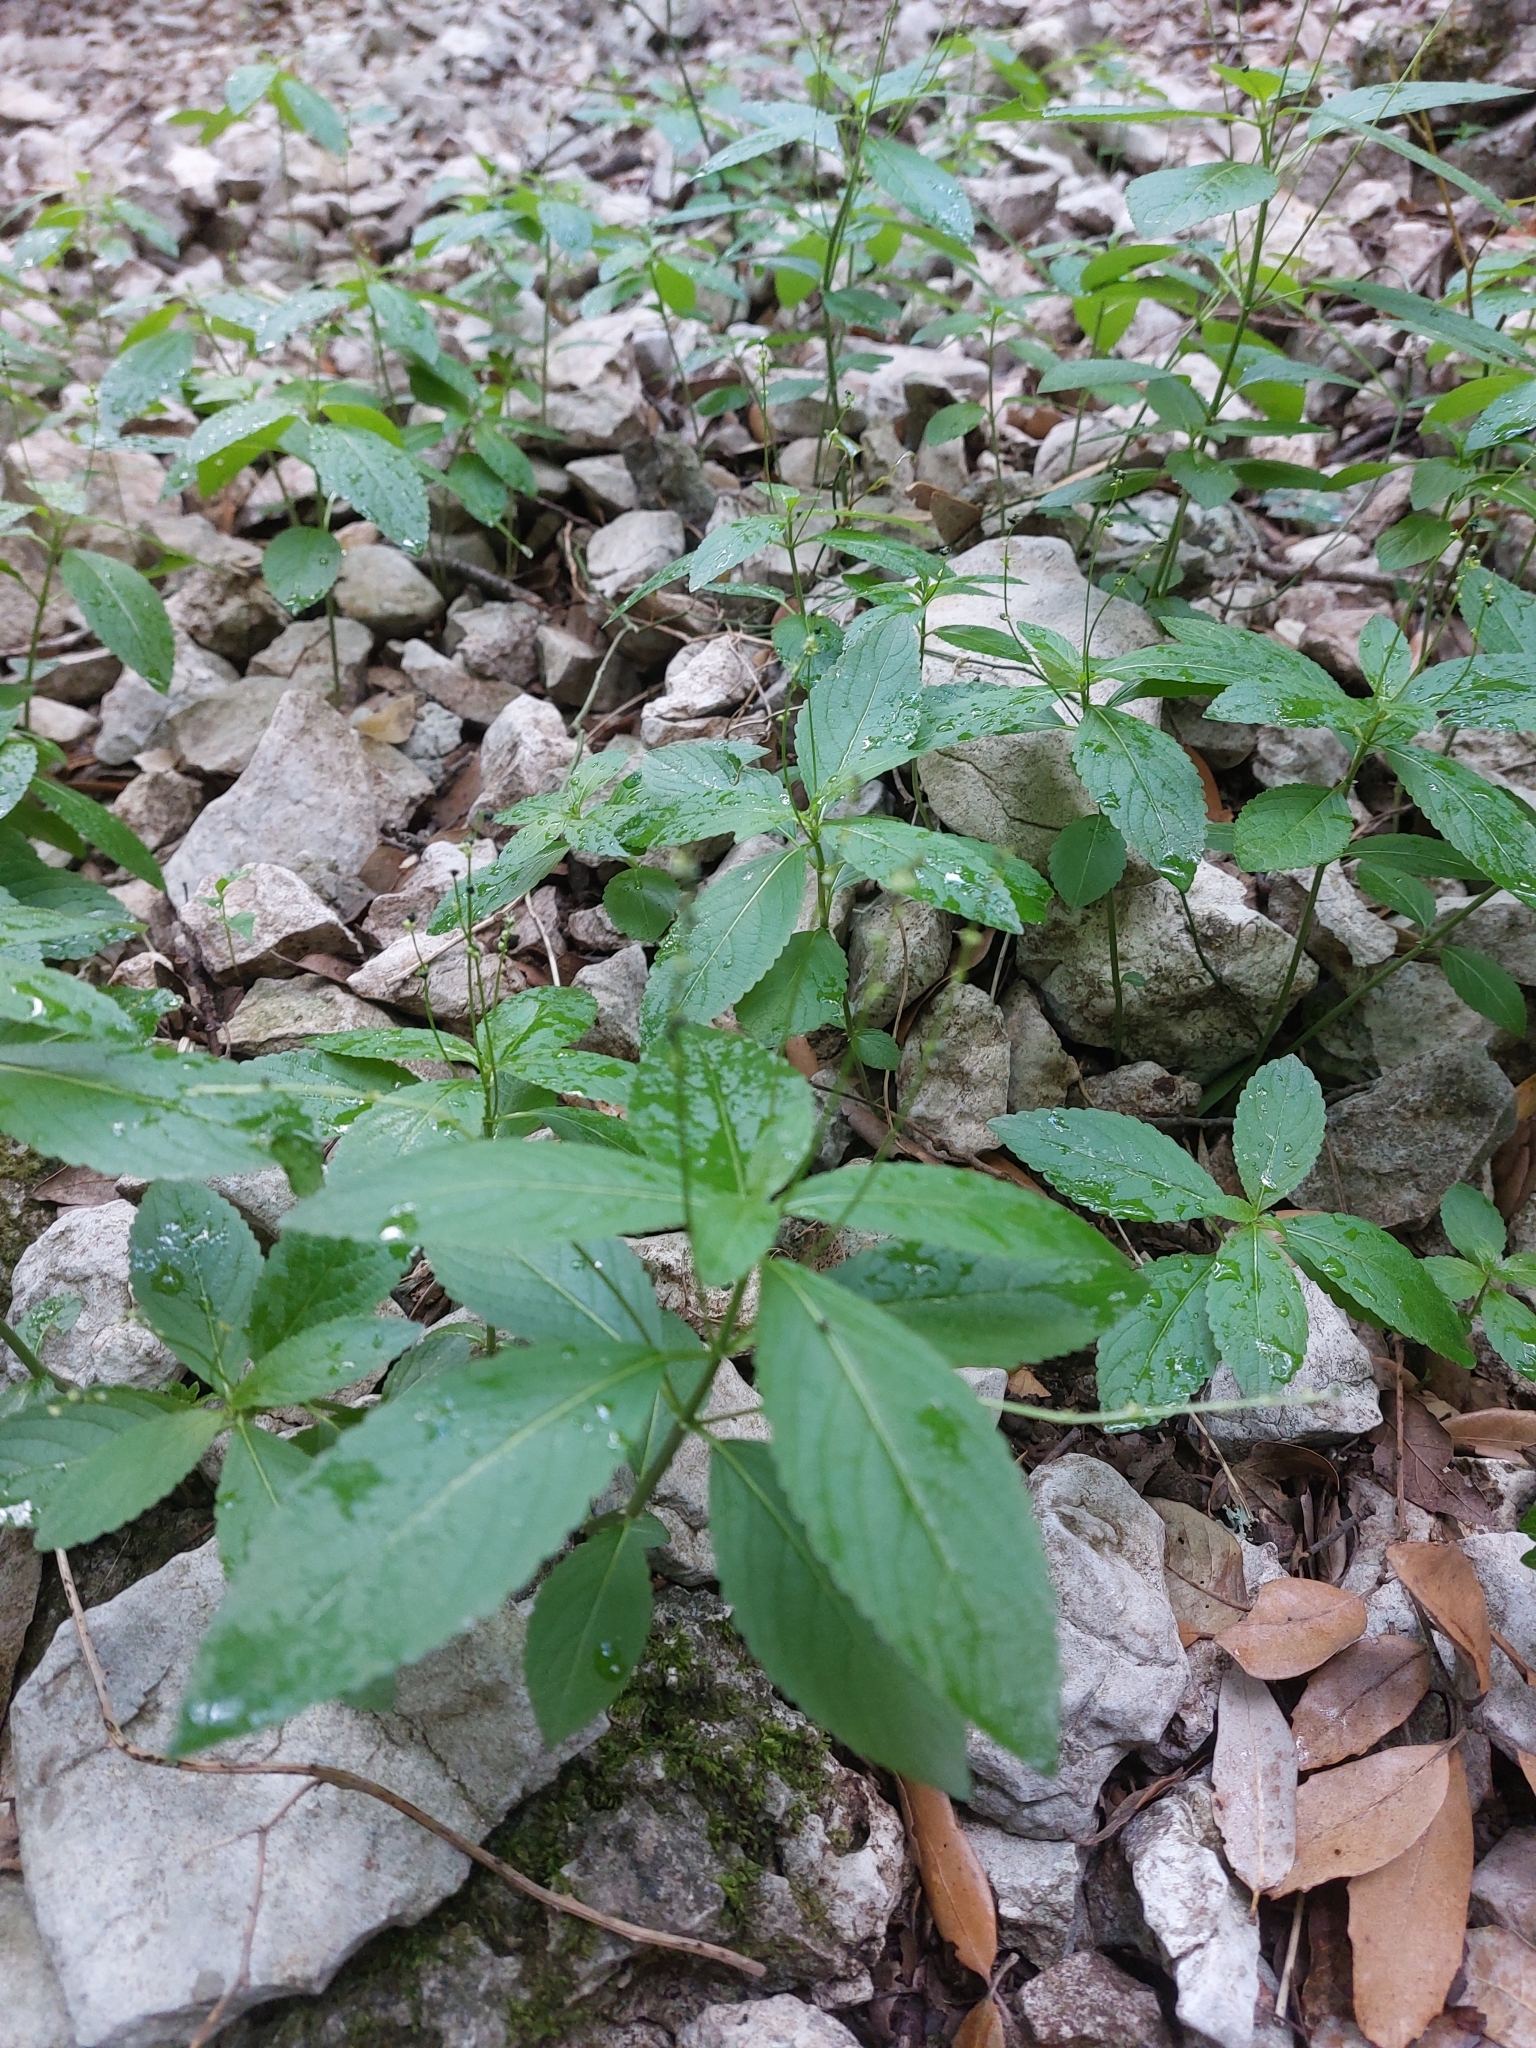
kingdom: Plantae
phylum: Tracheophyta
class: Magnoliopsida
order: Malpighiales
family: Euphorbiaceae
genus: Mercurialis
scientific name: Mercurialis perennis
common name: Dog mercury
